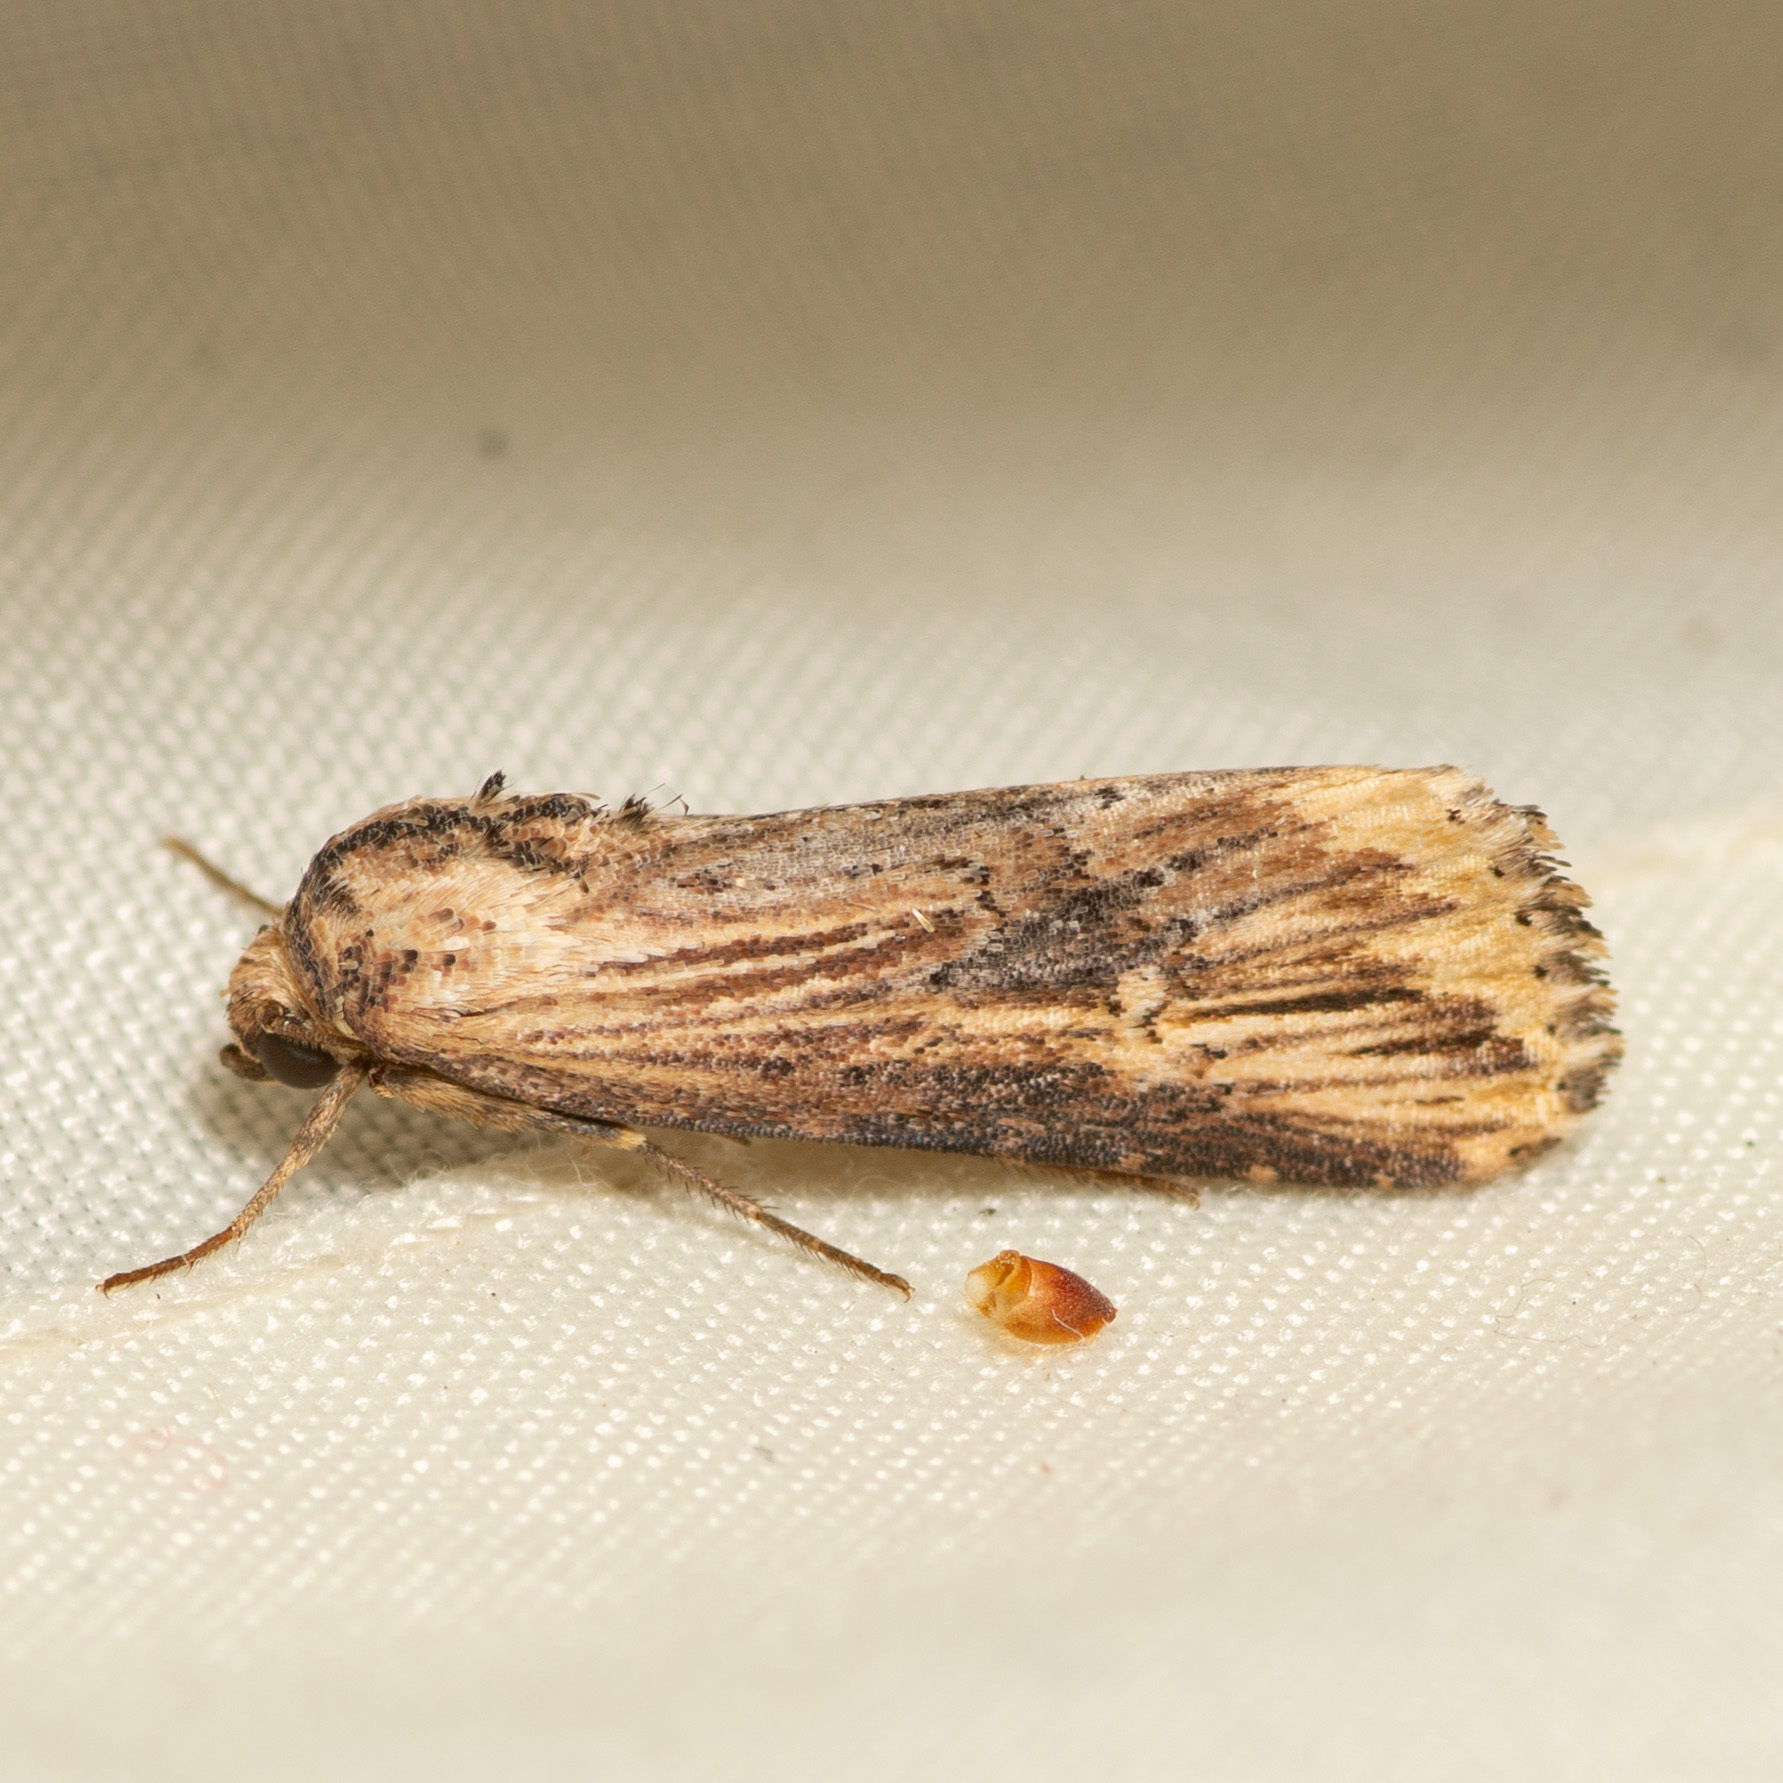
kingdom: Animalia
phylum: Arthropoda
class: Insecta
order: Lepidoptera
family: Noctuidae
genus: Crambodes
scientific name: Crambodes talidiformis
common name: Verbena moth
